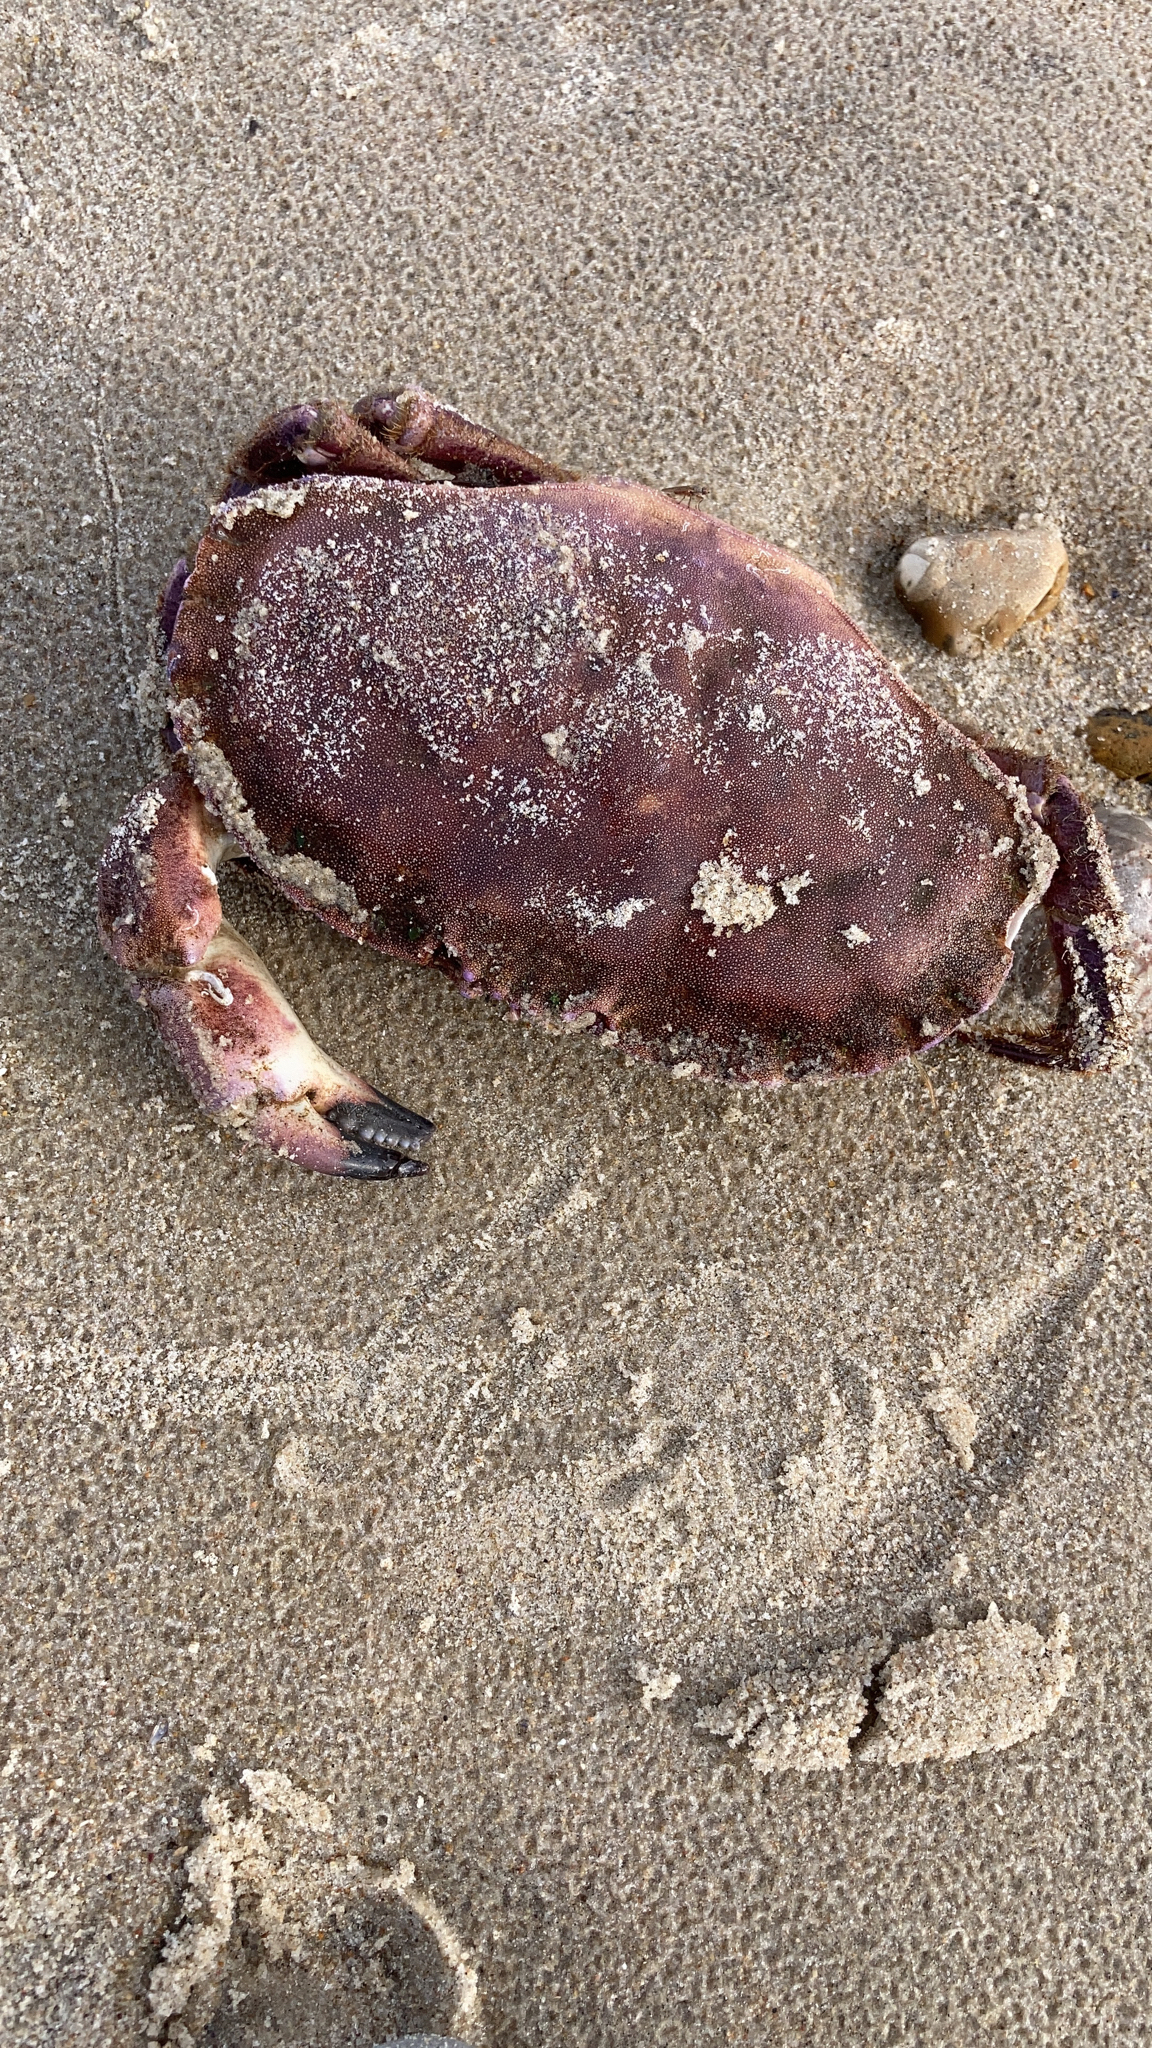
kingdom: Animalia
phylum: Arthropoda
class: Malacostraca
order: Decapoda
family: Cancridae
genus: Cancer
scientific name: Cancer pagurus
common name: Edible crab
